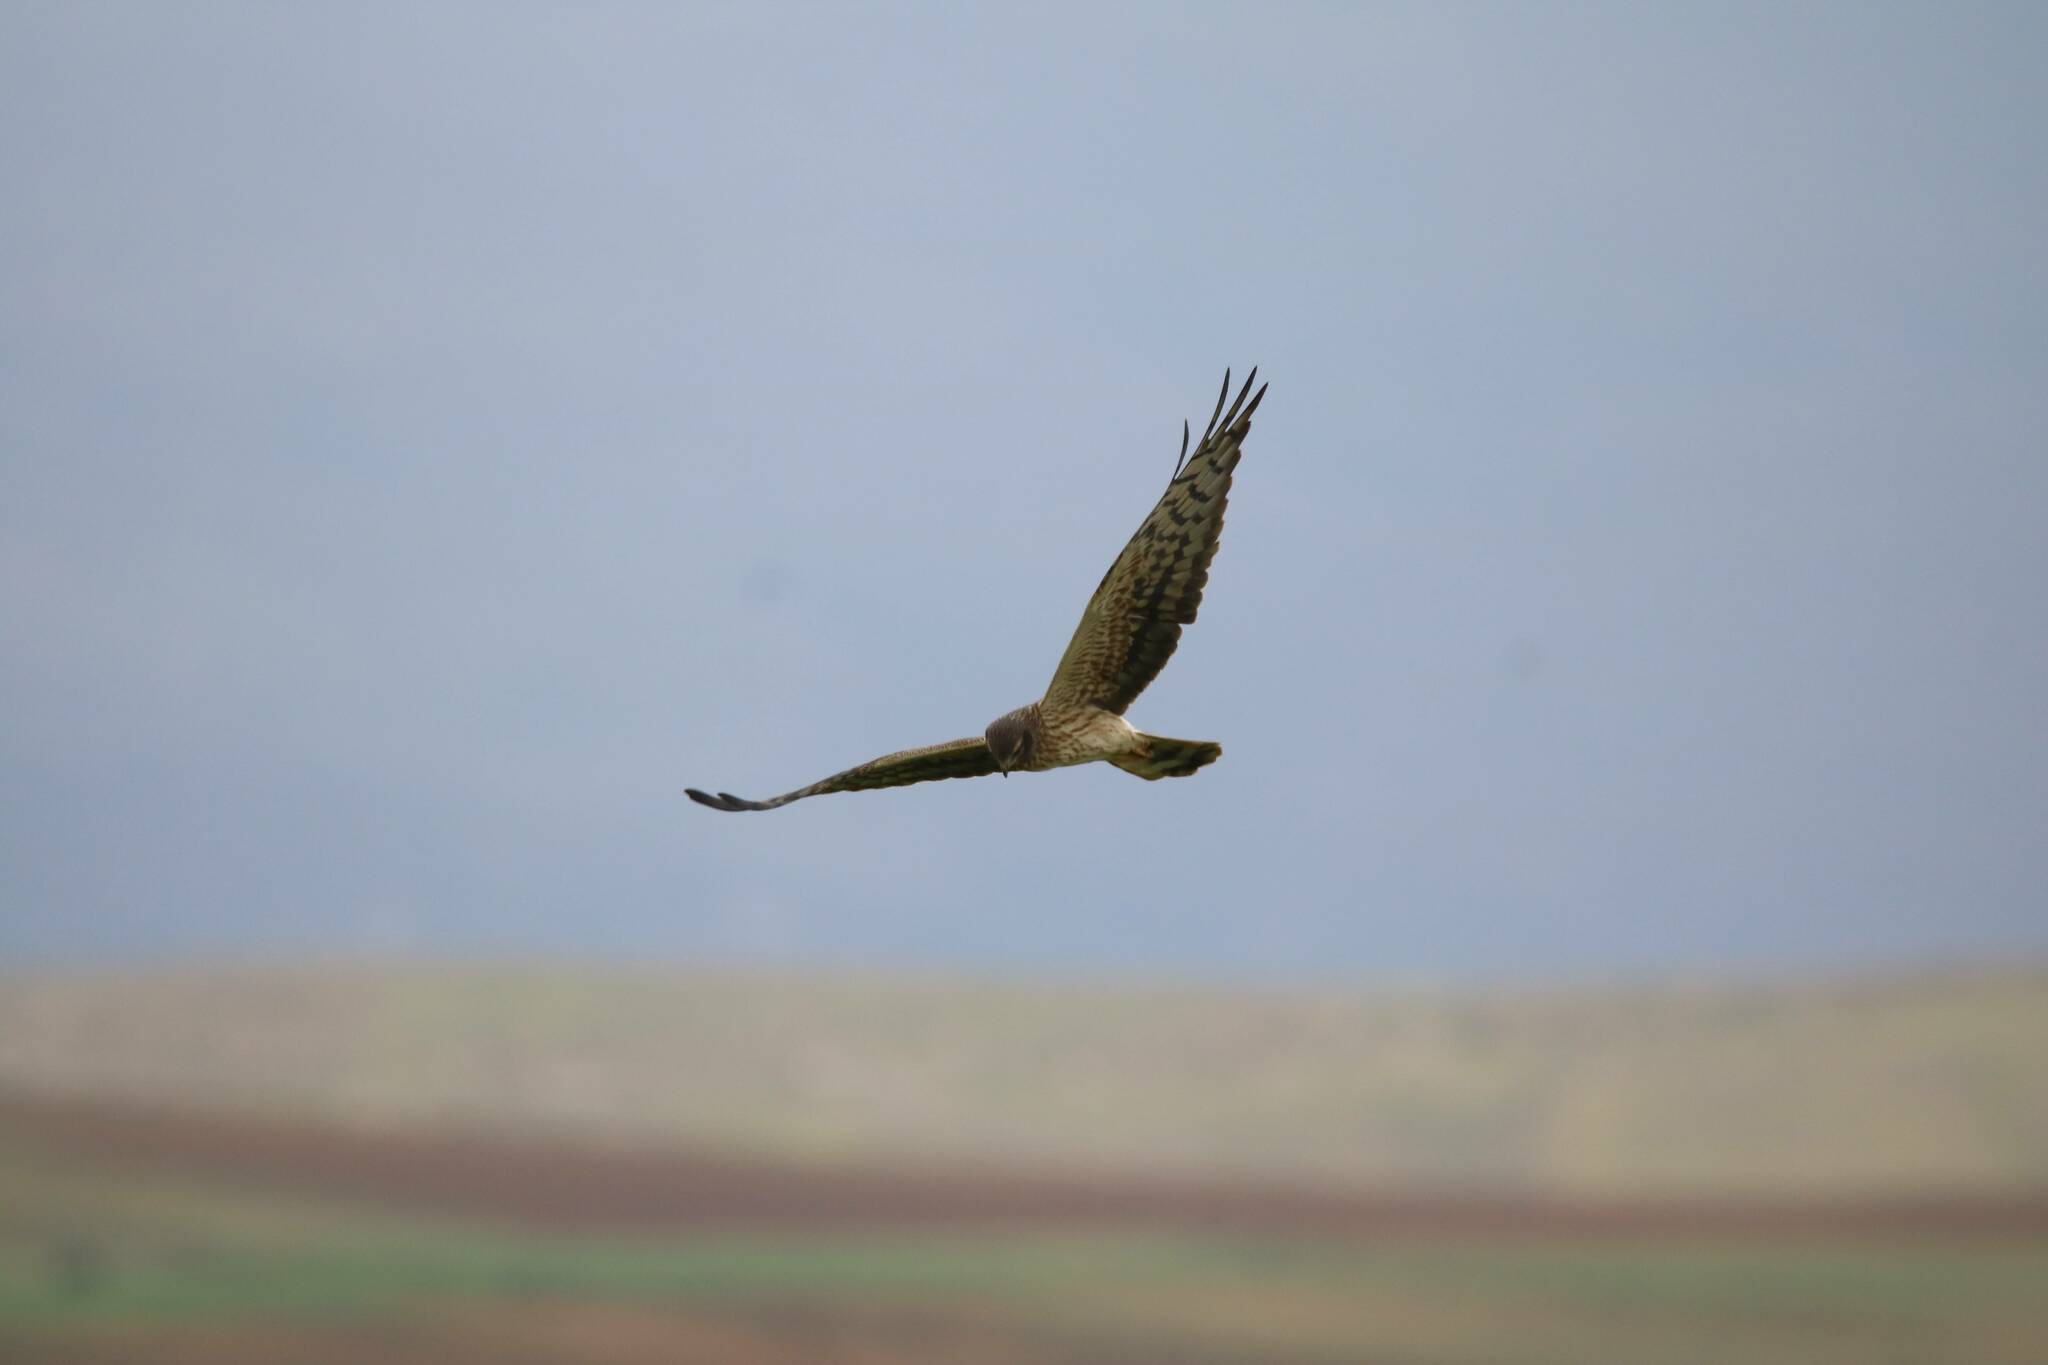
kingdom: Animalia
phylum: Chordata
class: Aves
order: Accipitriformes
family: Accipitridae
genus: Circus
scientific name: Circus pygargus
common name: Montagu's harrier
